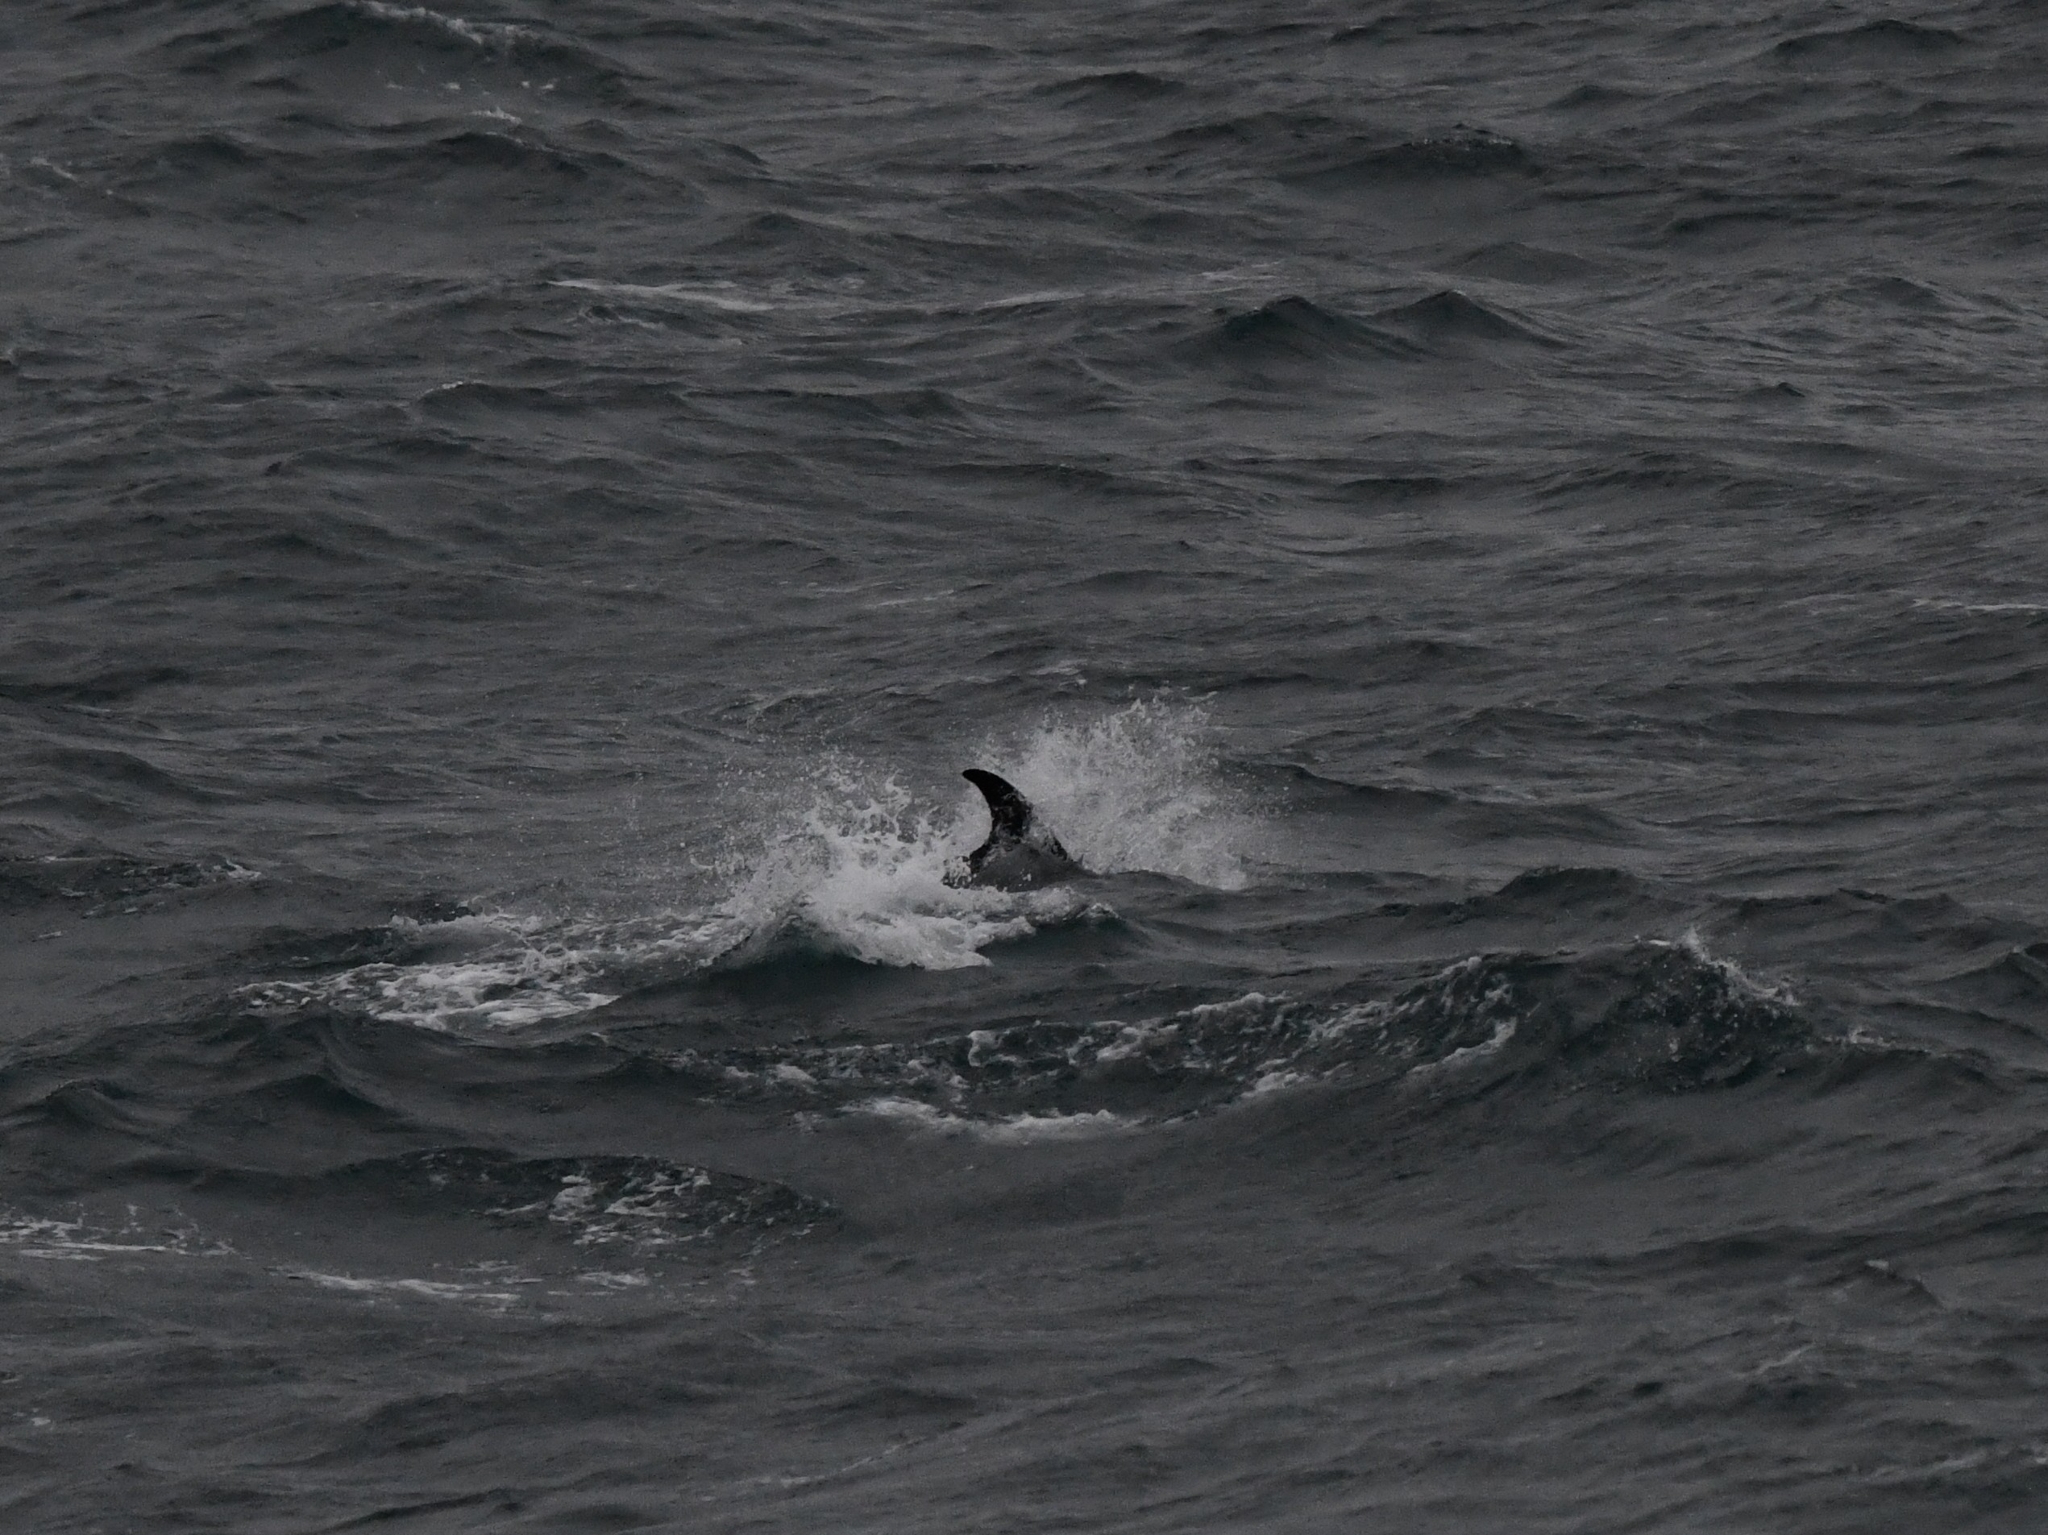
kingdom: Animalia
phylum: Chordata
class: Mammalia
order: Cetacea
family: Delphinidae
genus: Lagenorhynchus
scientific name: Lagenorhynchus albirostris
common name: White-beaked dolphin
